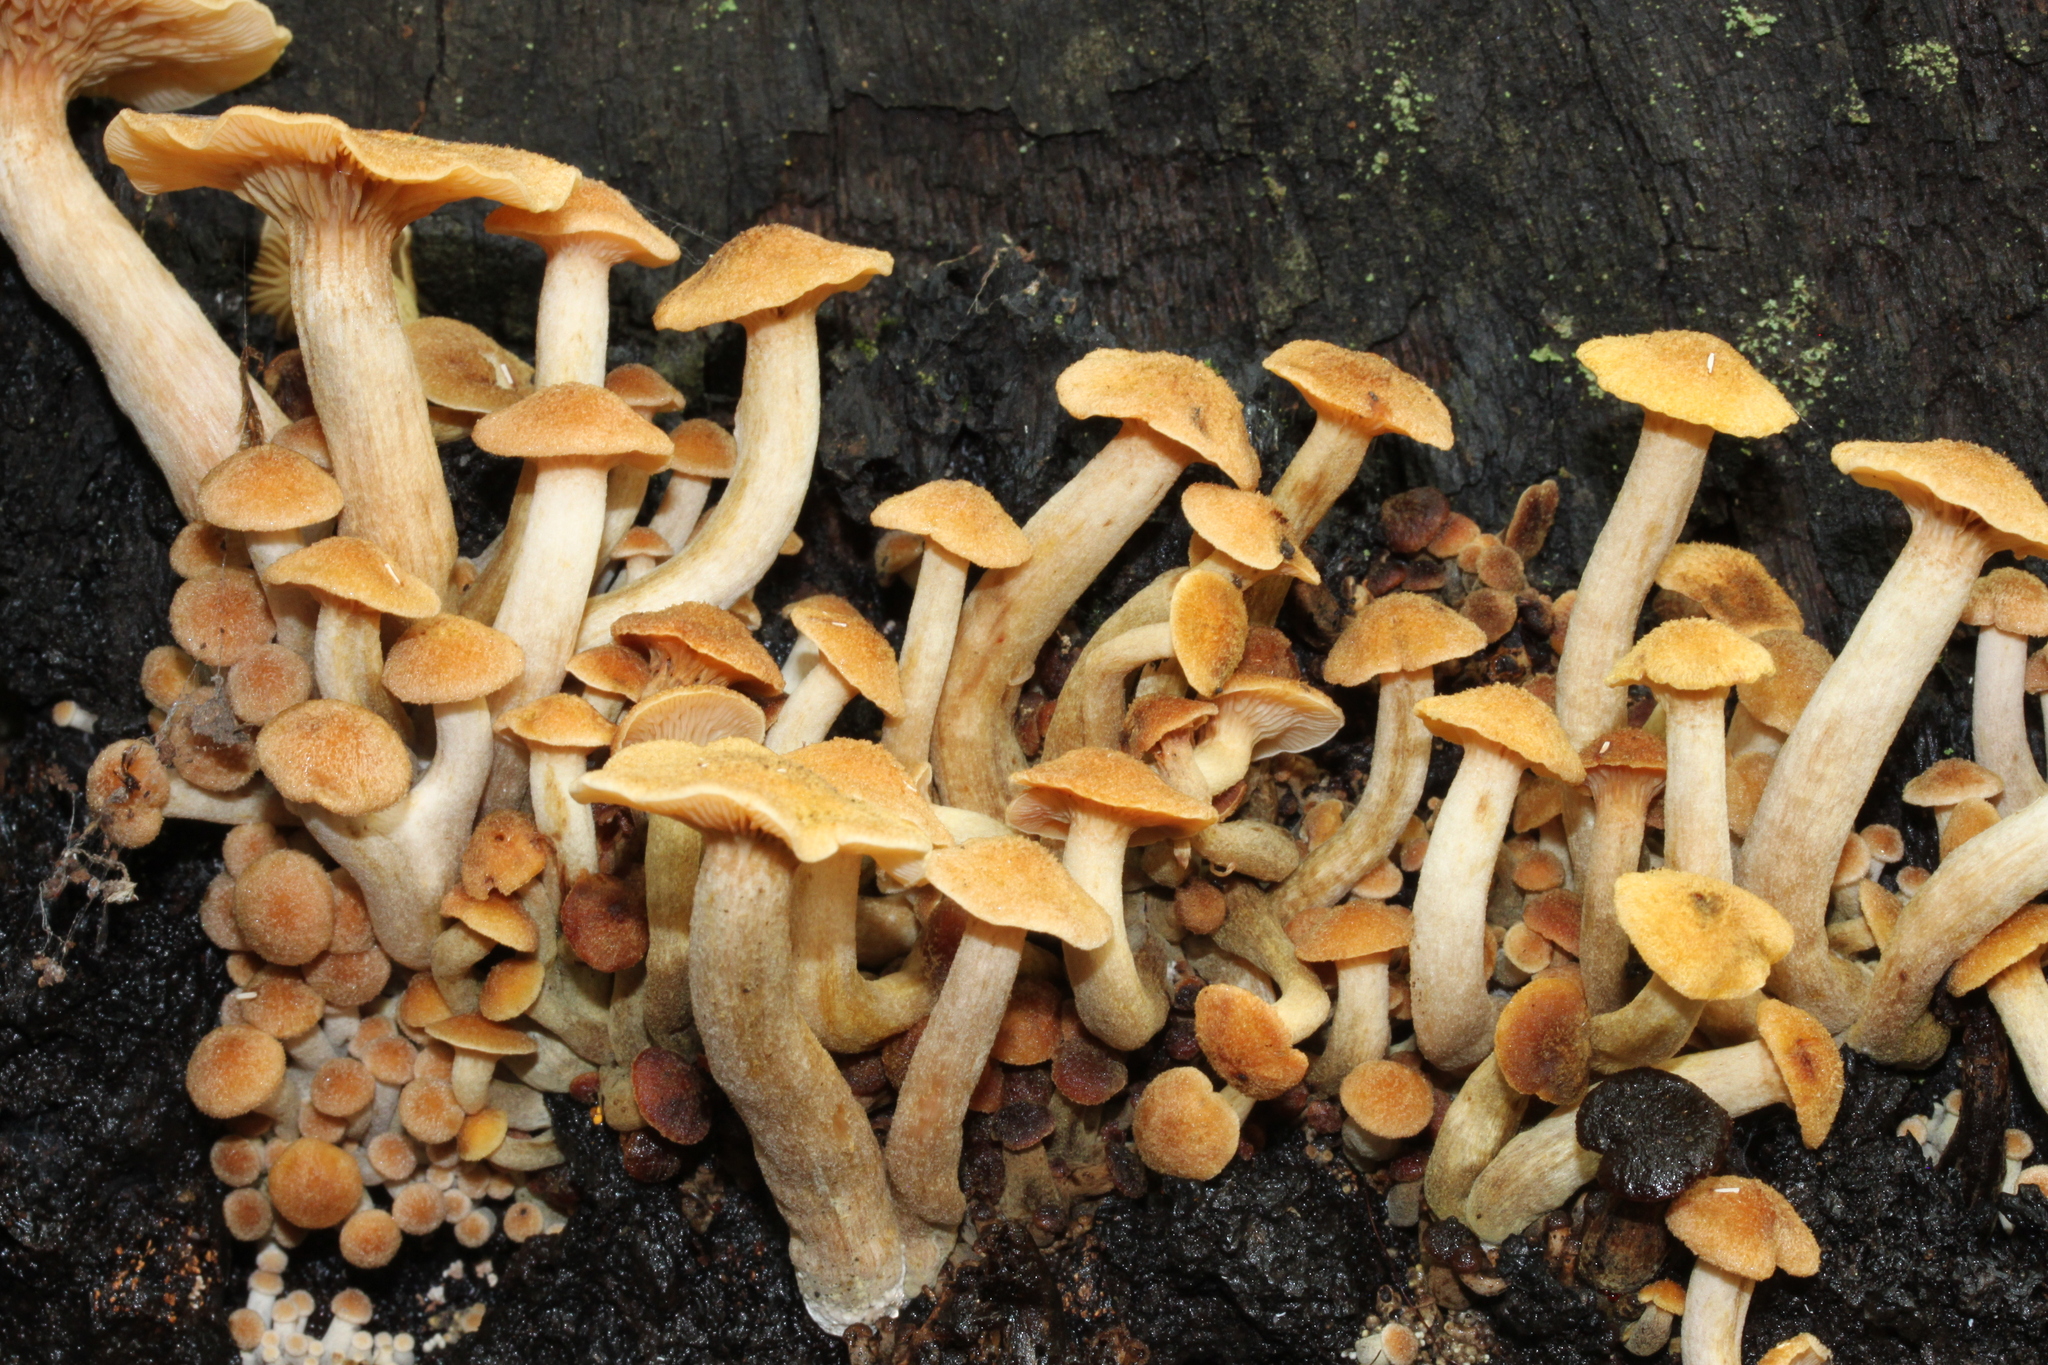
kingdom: Fungi
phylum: Basidiomycota
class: Agaricomycetes
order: Agaricales
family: Physalacriaceae
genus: Desarmillaria
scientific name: Desarmillaria caespitosa
